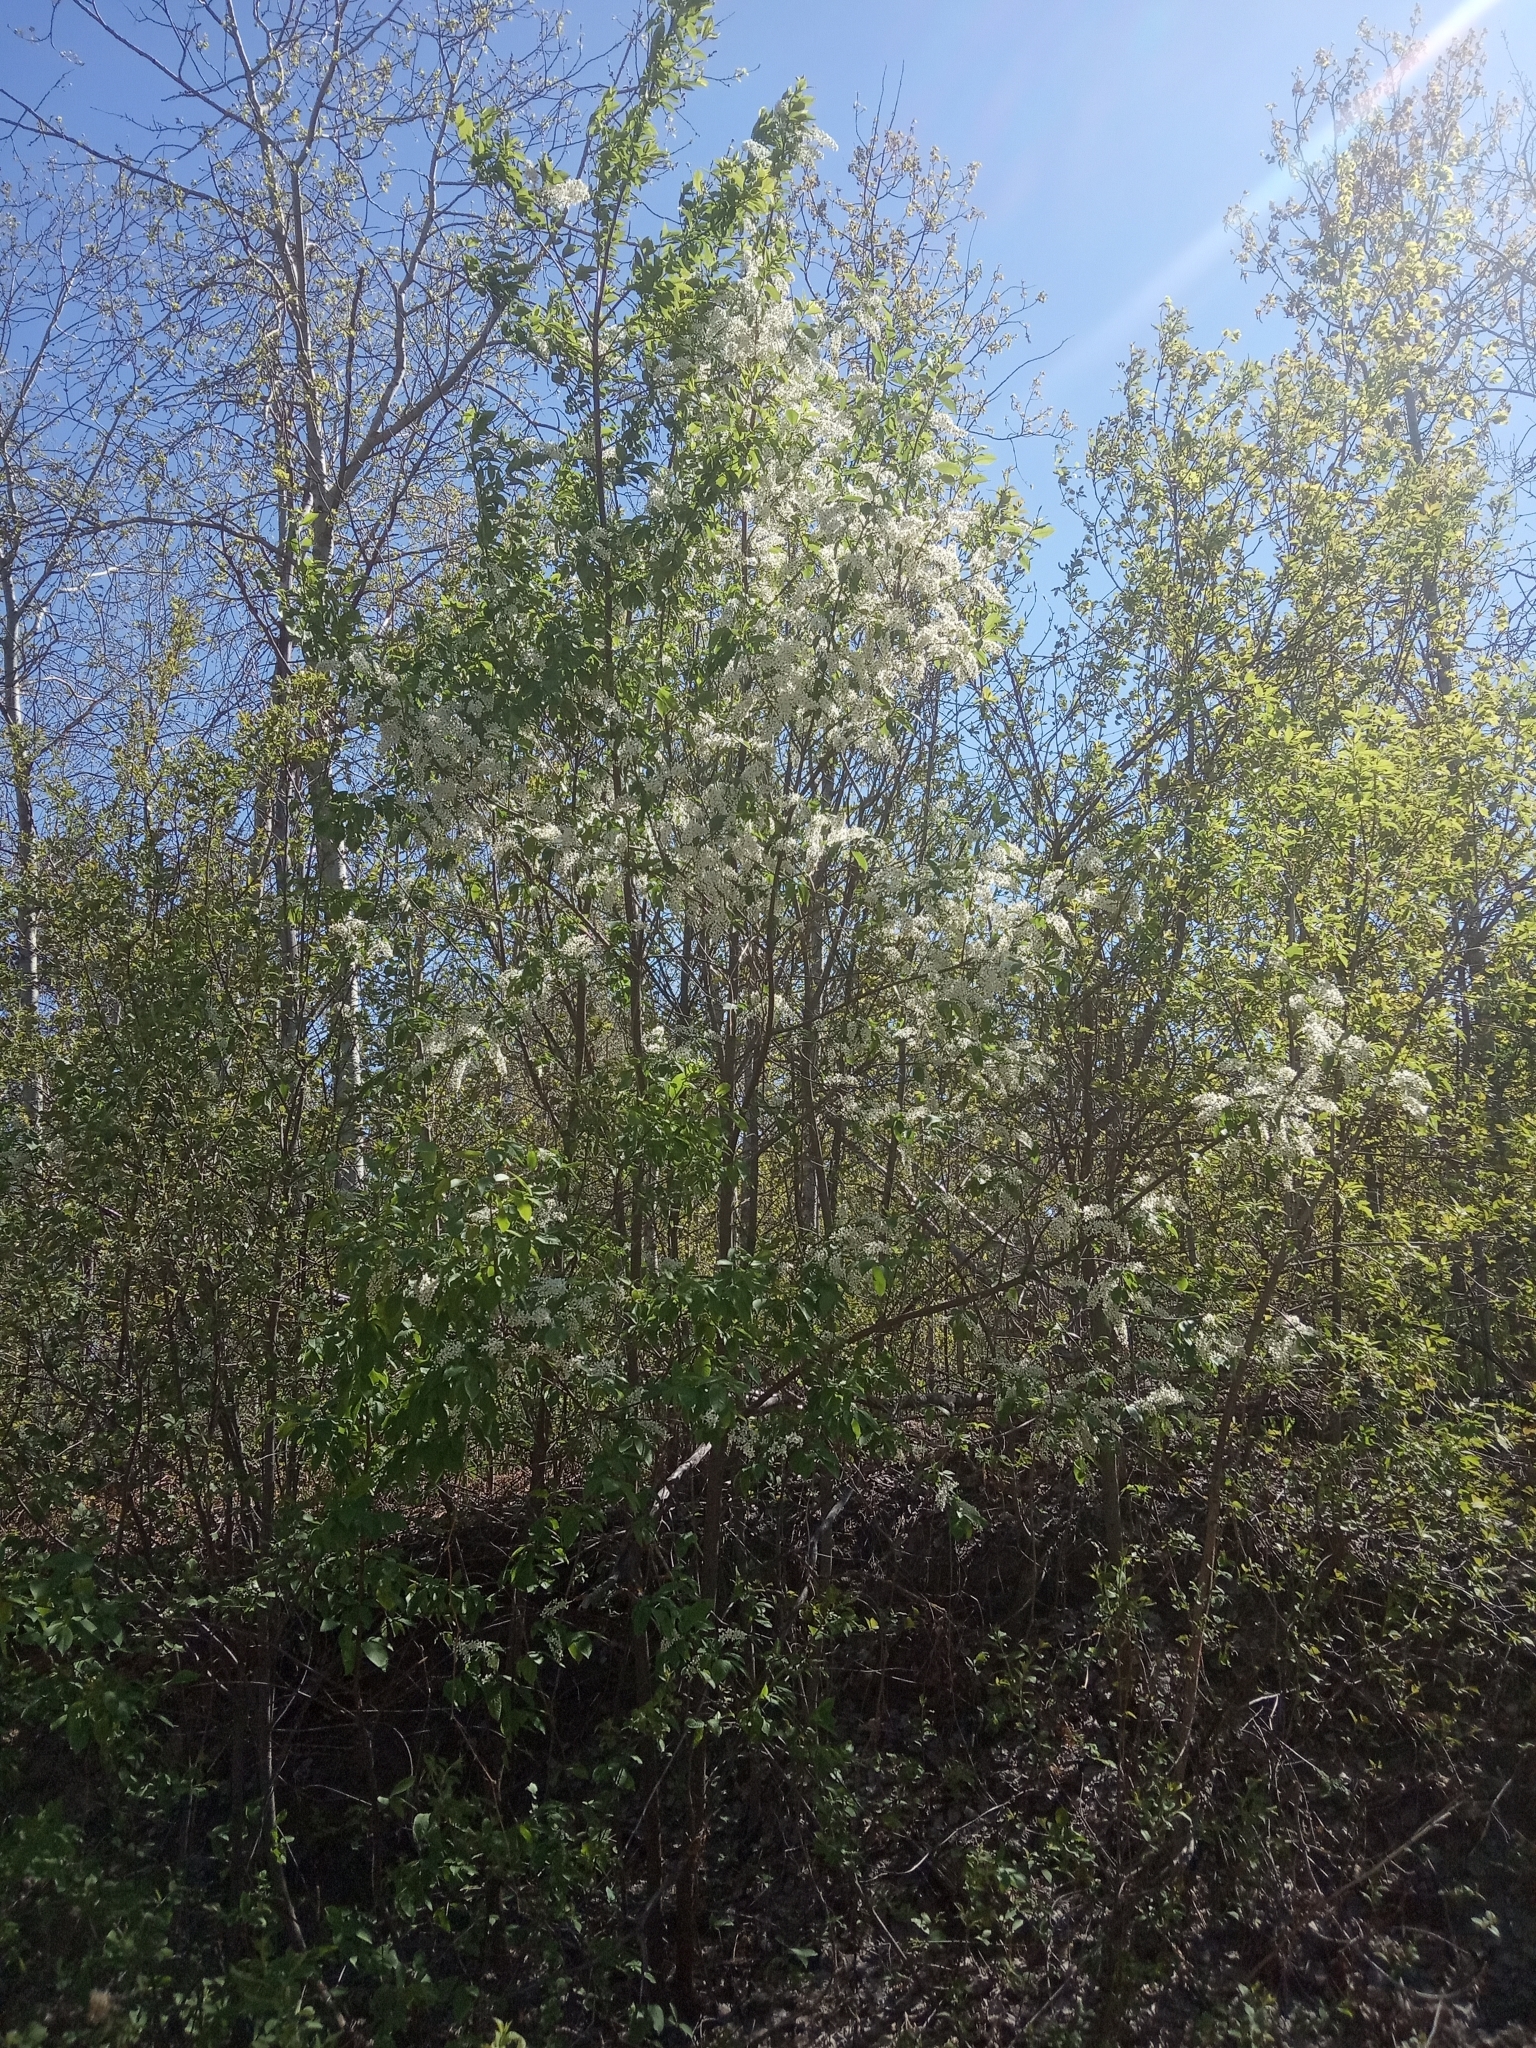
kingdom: Plantae
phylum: Tracheophyta
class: Magnoliopsida
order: Rosales
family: Rosaceae
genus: Prunus
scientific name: Prunus padus
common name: Bird cherry
